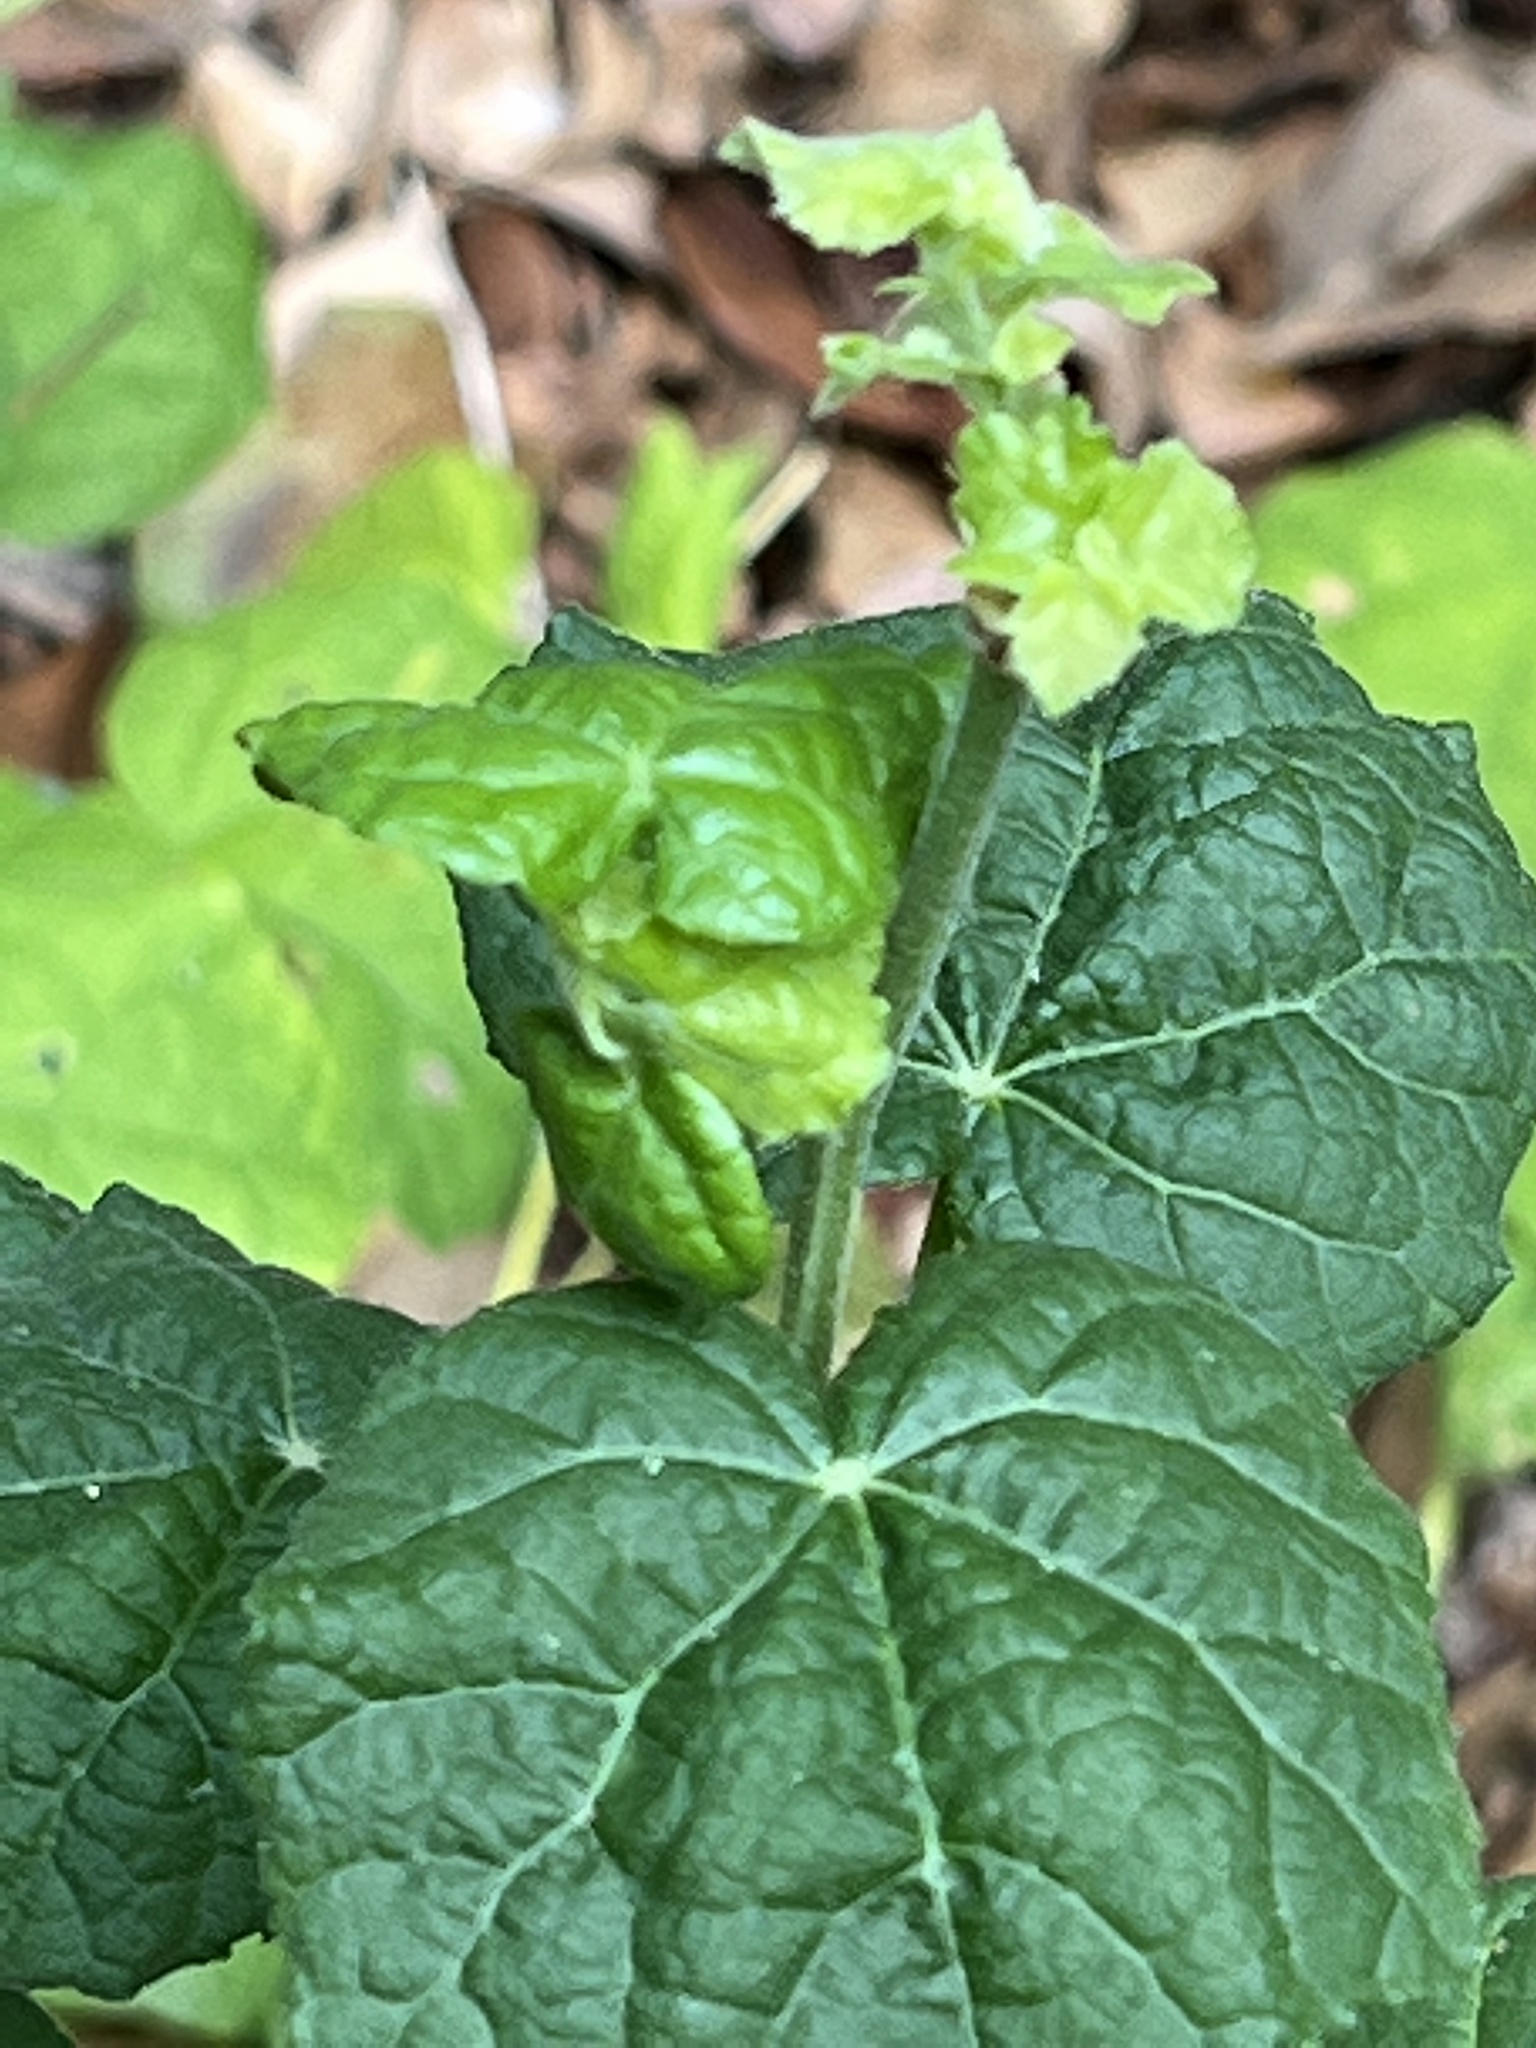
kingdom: Plantae
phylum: Tracheophyta
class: Magnoliopsida
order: Malvales
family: Malvaceae
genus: Malvaviscus
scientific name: Malvaviscus arboreus
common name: Wax mallow
